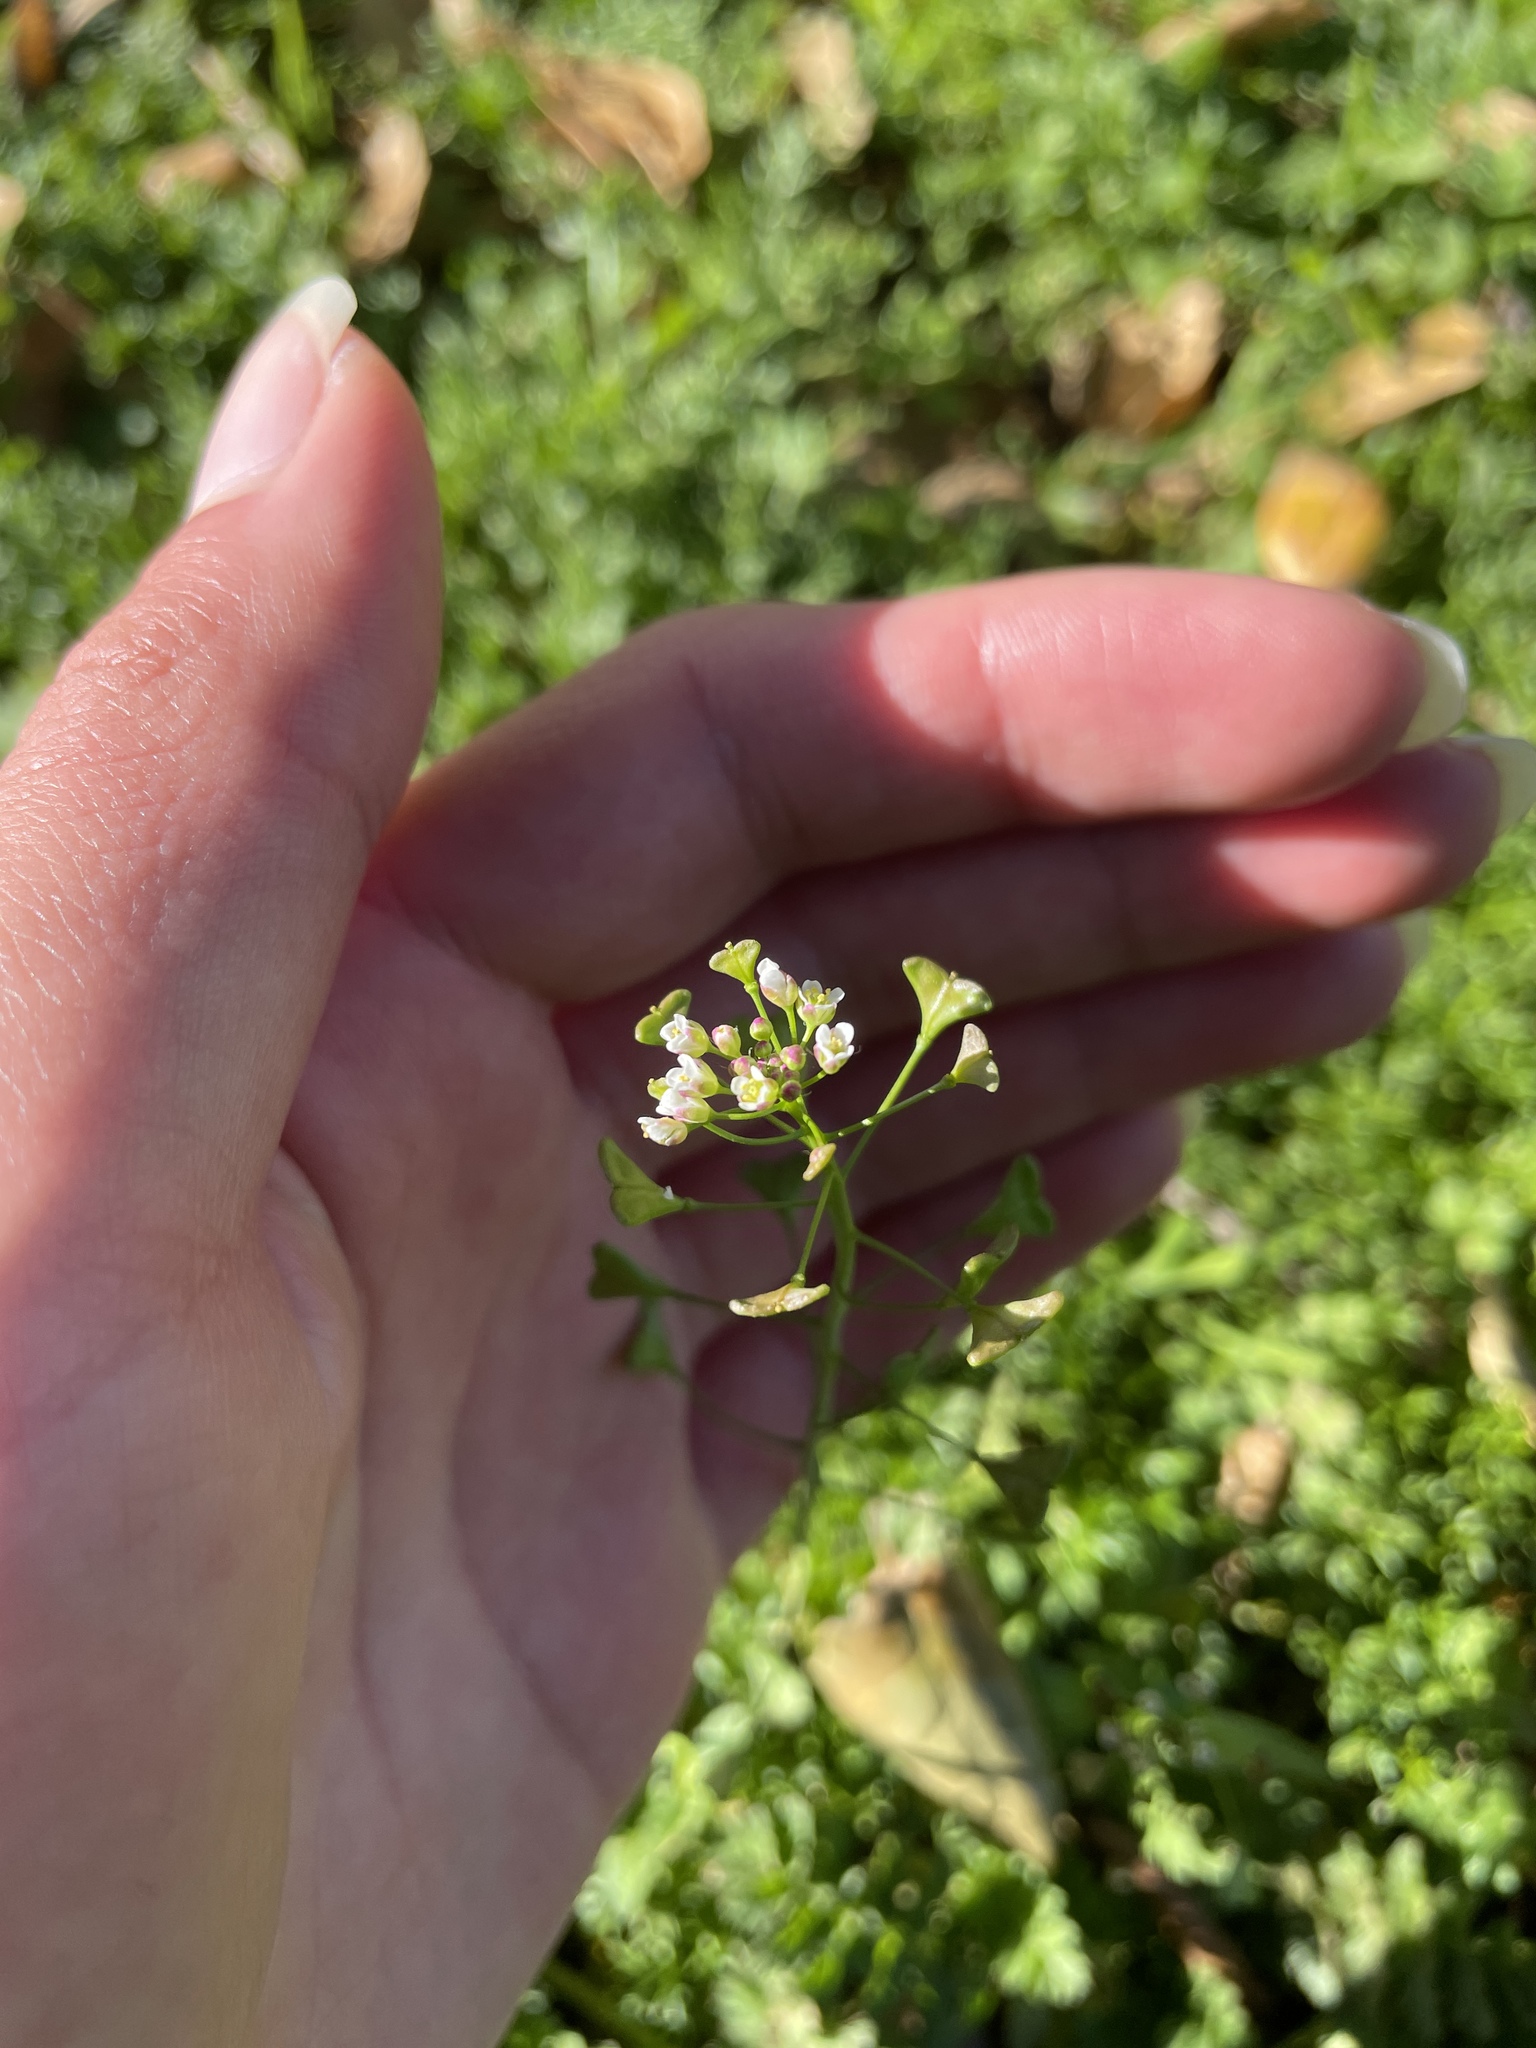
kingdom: Plantae
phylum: Tracheophyta
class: Magnoliopsida
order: Brassicales
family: Brassicaceae
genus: Capsella
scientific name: Capsella bursa-pastoris
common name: Shepherd's purse
